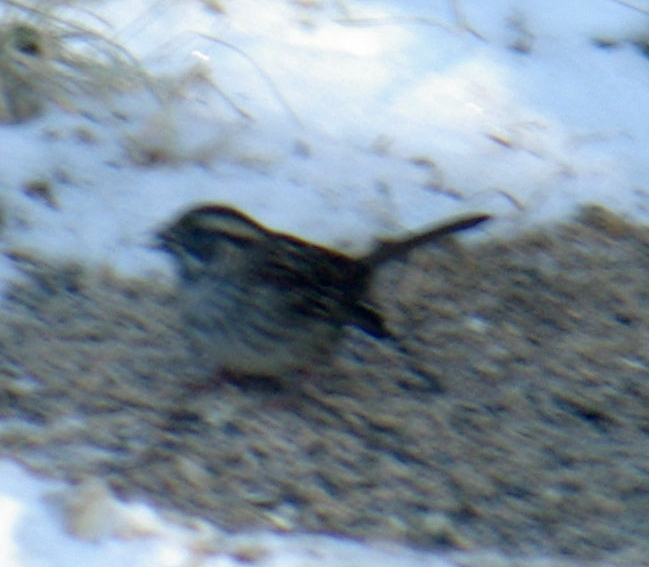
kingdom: Animalia
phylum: Chordata
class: Aves
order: Passeriformes
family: Passerellidae
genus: Zonotrichia
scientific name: Zonotrichia albicollis
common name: White-throated sparrow
